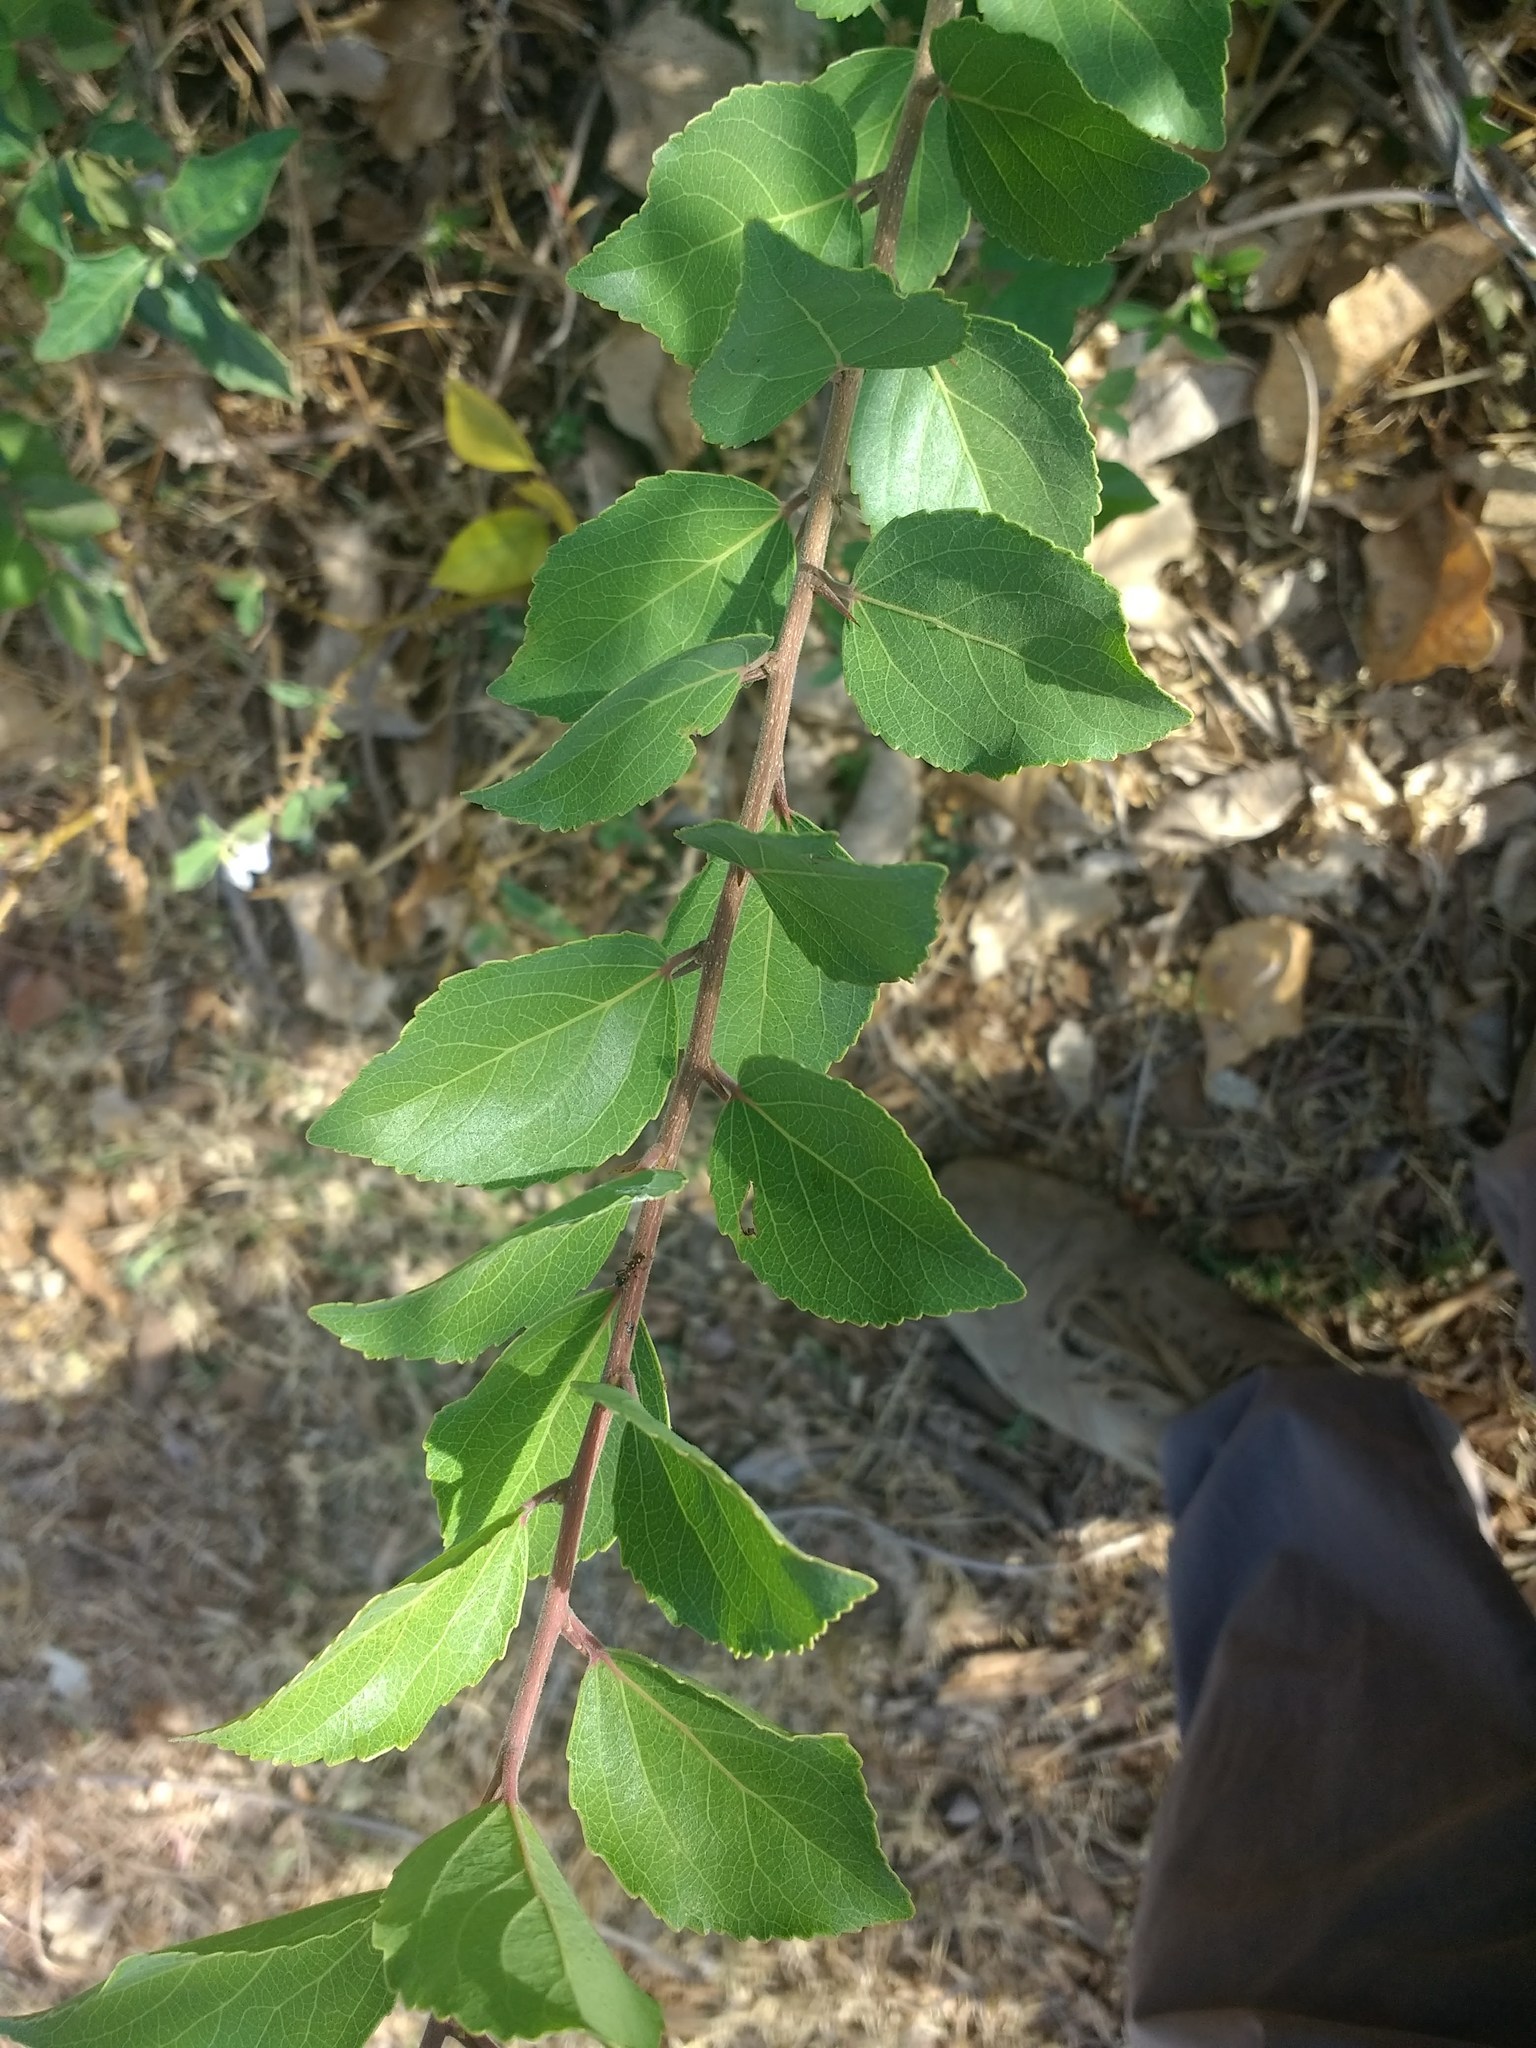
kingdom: Plantae
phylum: Tracheophyta
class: Magnoliopsida
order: Malpighiales
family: Salicaceae
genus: Flacourtia
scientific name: Flacourtia indica
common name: Governor's plum
